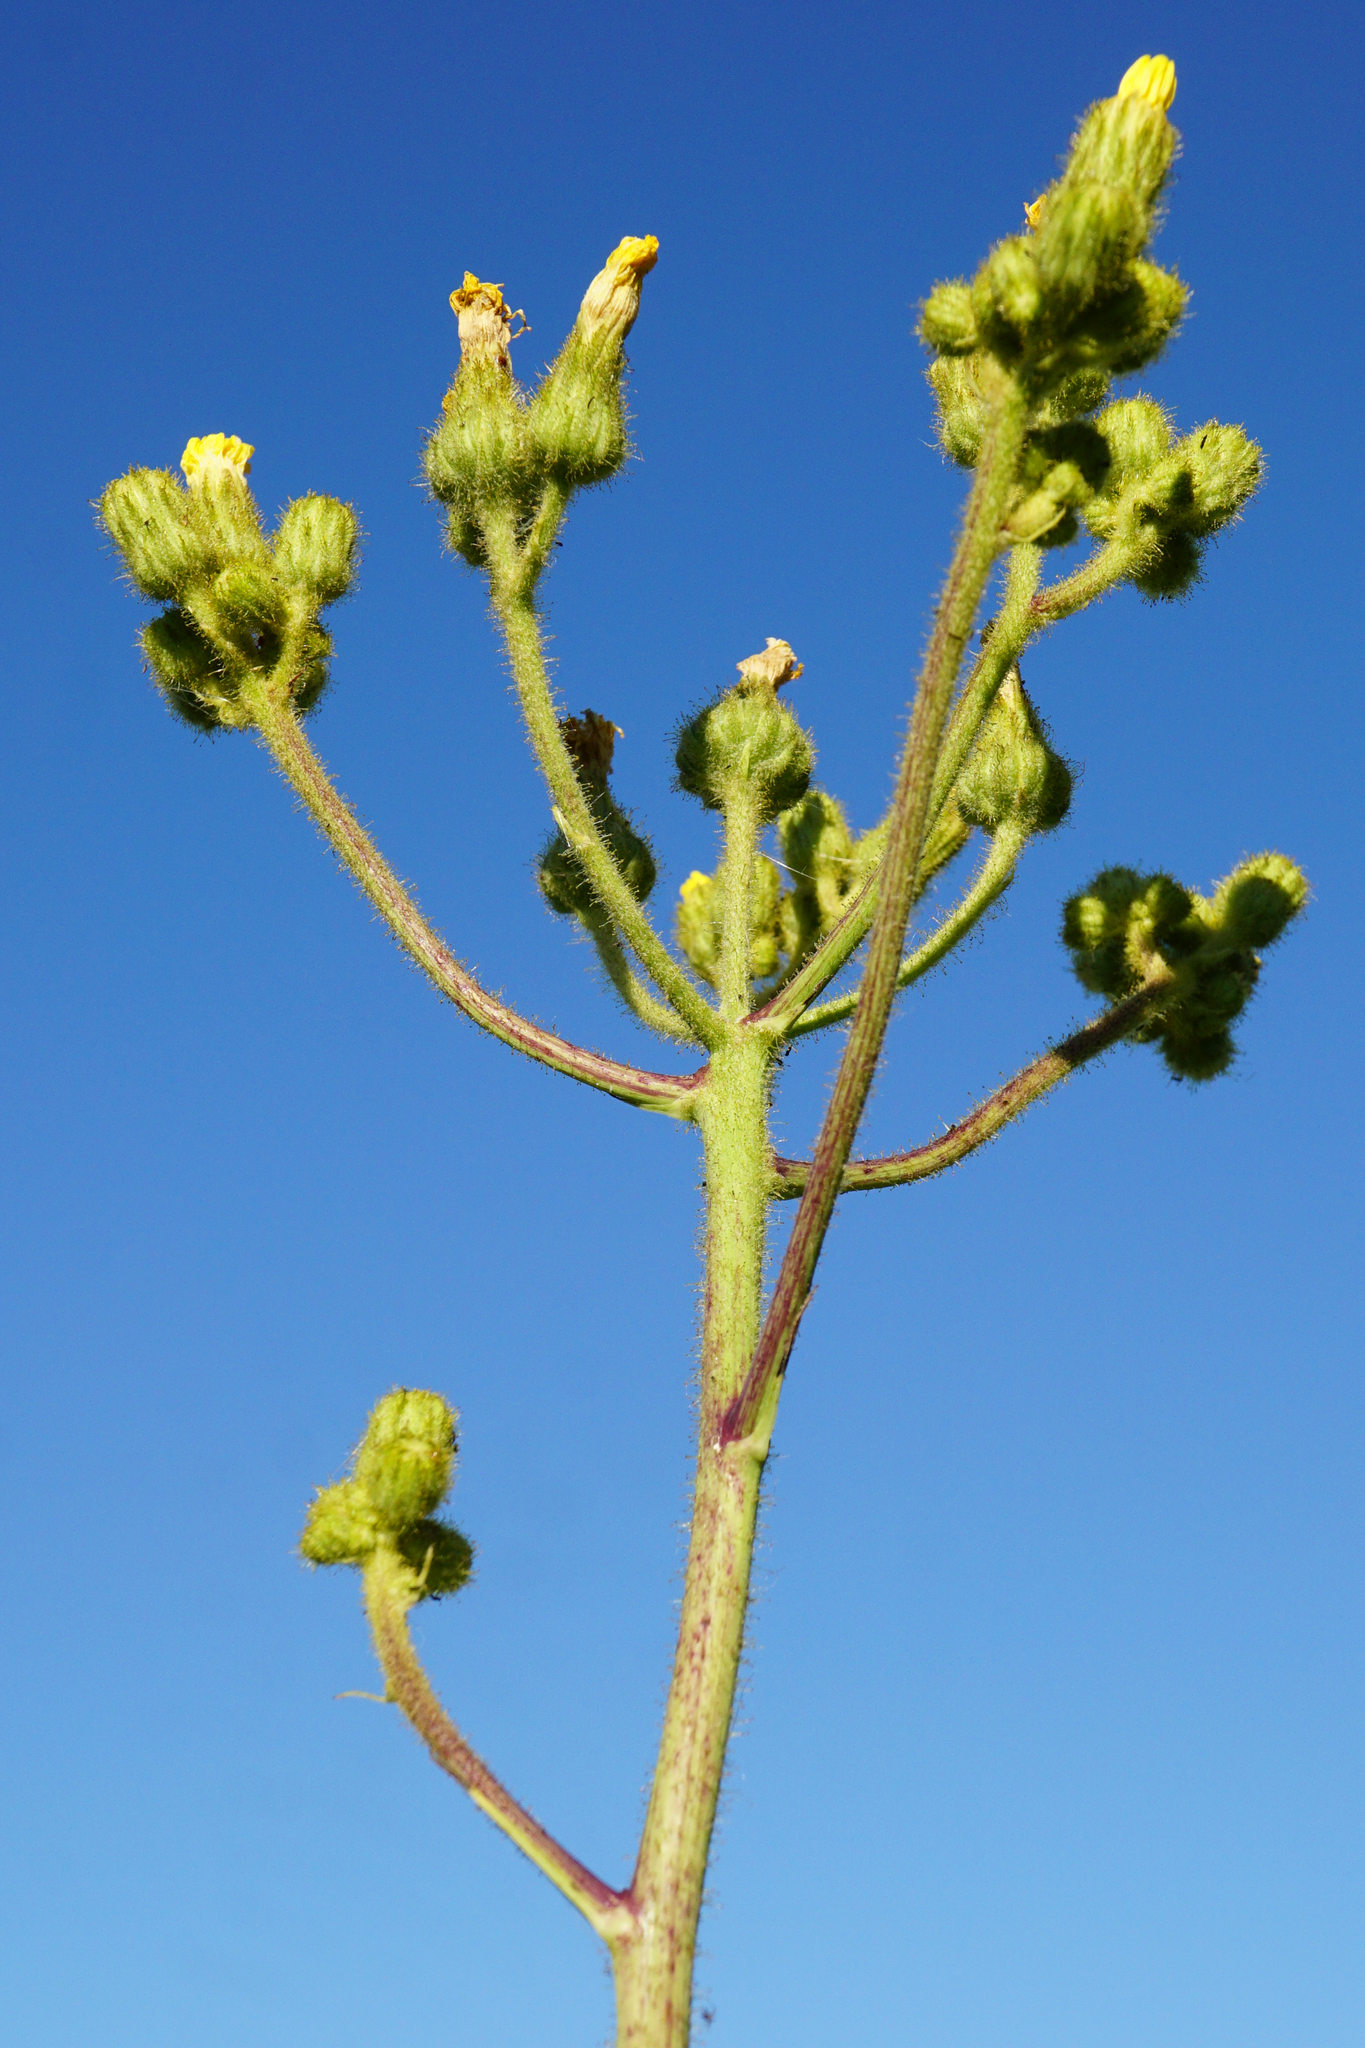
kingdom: Plantae
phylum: Tracheophyta
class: Magnoliopsida
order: Asterales
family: Asteraceae
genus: Sonchus
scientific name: Sonchus palustris
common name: Marsh sow-thistle
